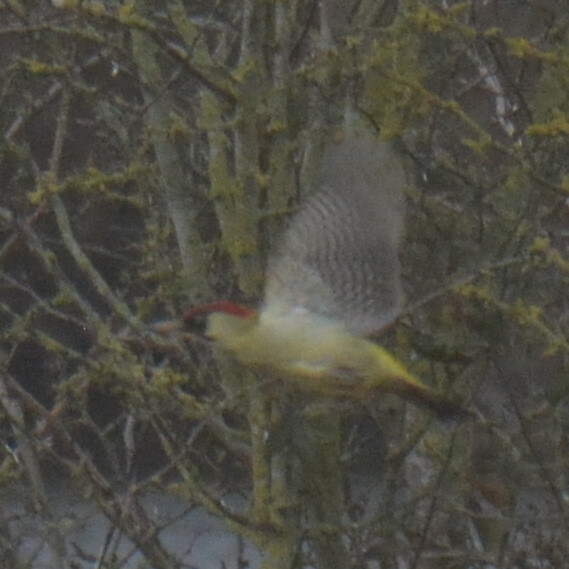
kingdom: Animalia
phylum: Chordata
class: Aves
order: Piciformes
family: Picidae
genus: Picus
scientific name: Picus viridis
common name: European green woodpecker
